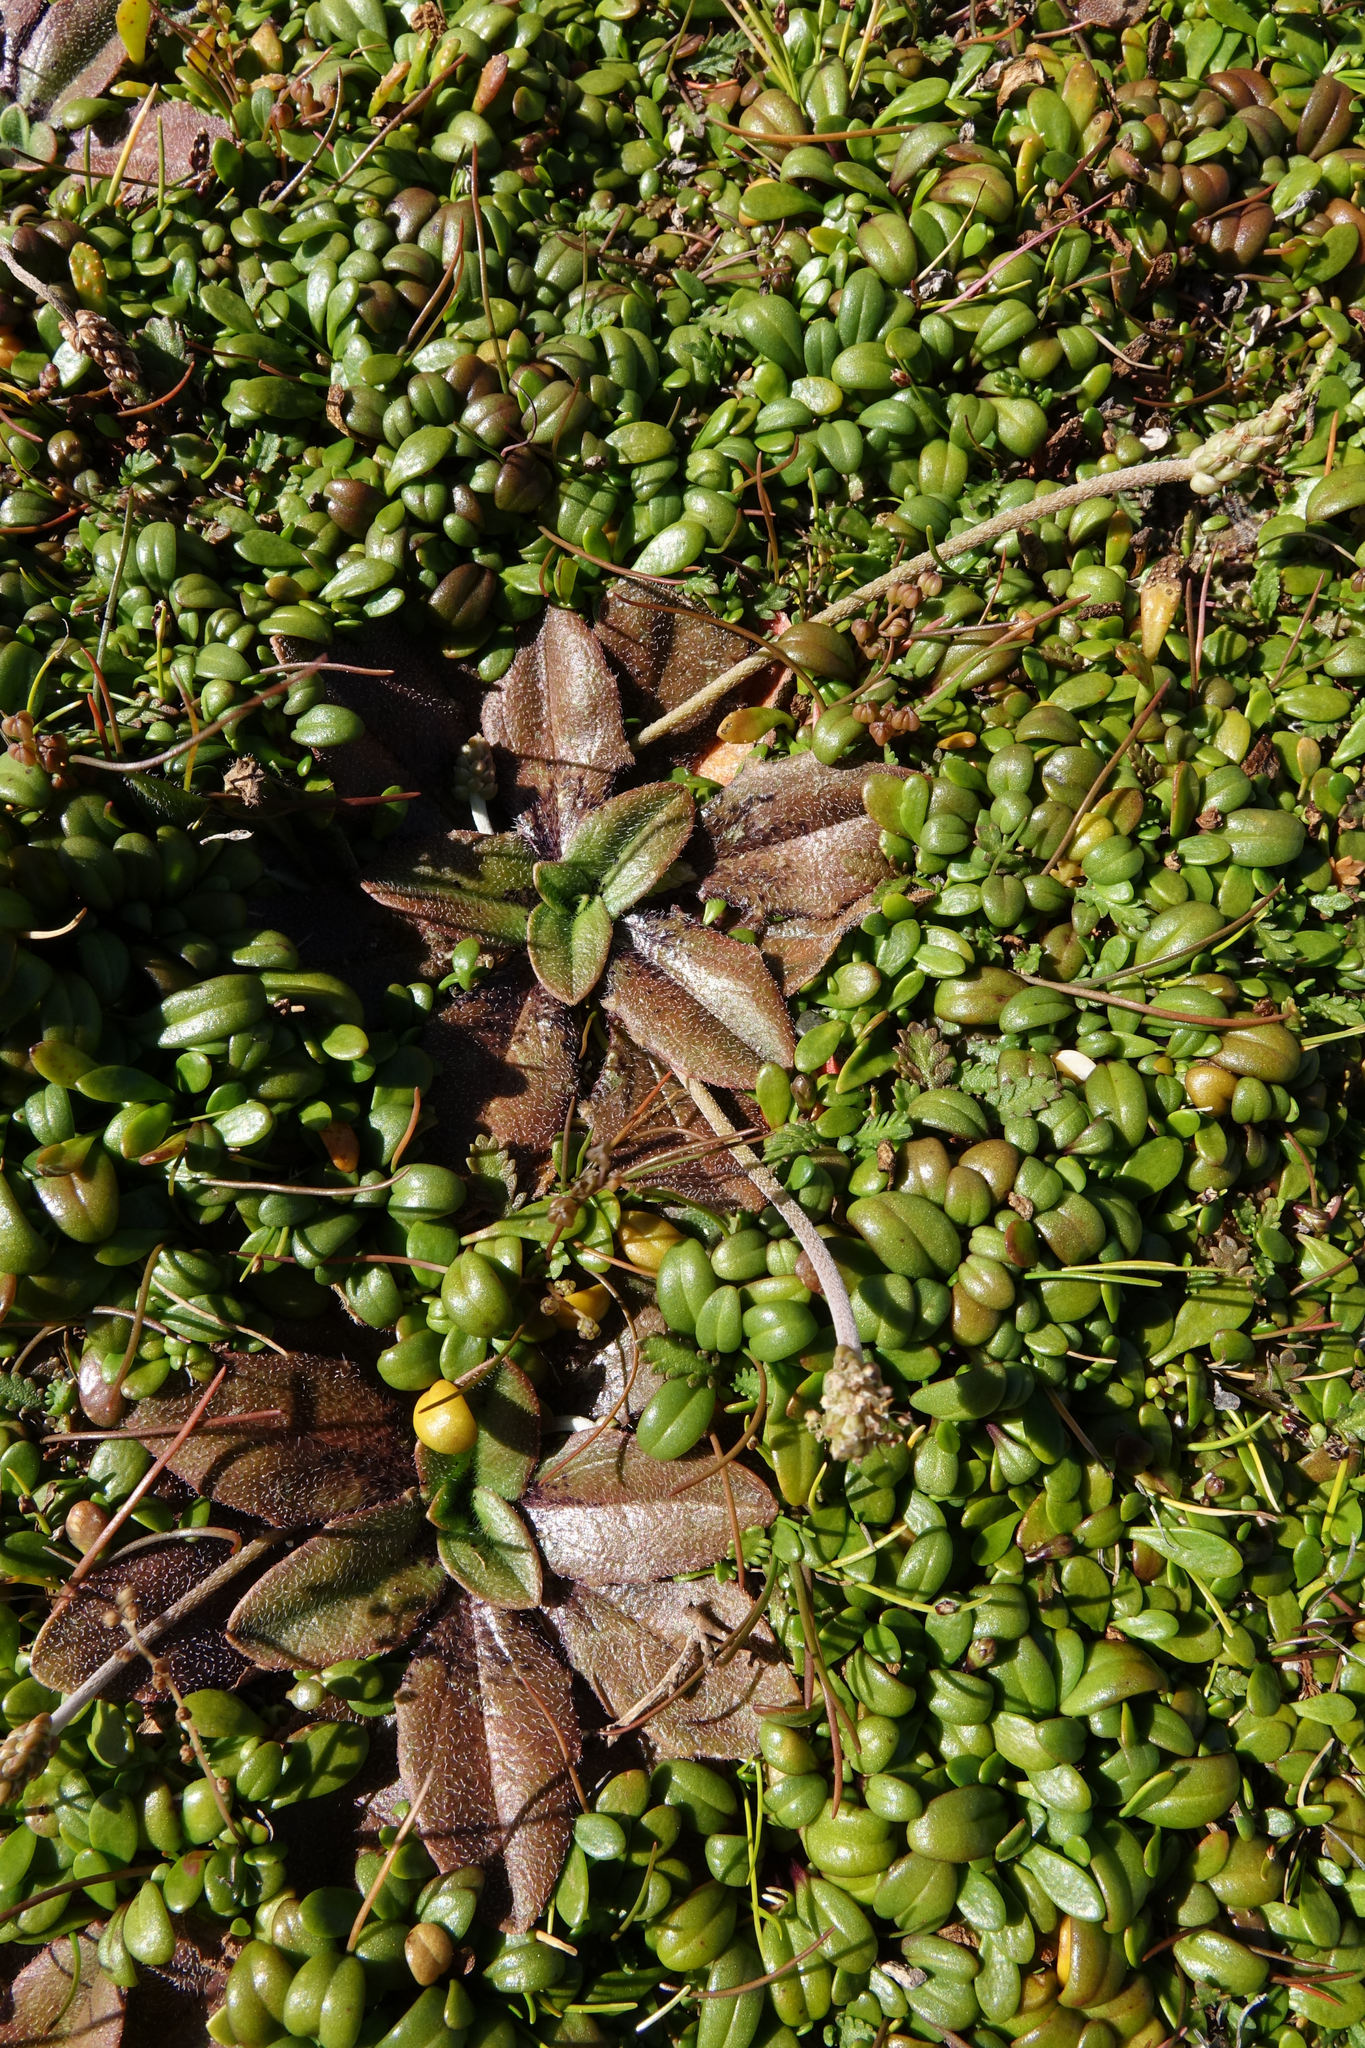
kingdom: Plantae
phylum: Tracheophyta
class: Magnoliopsida
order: Lamiales
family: Plantaginaceae
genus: Plantago
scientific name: Plantago raoulii
